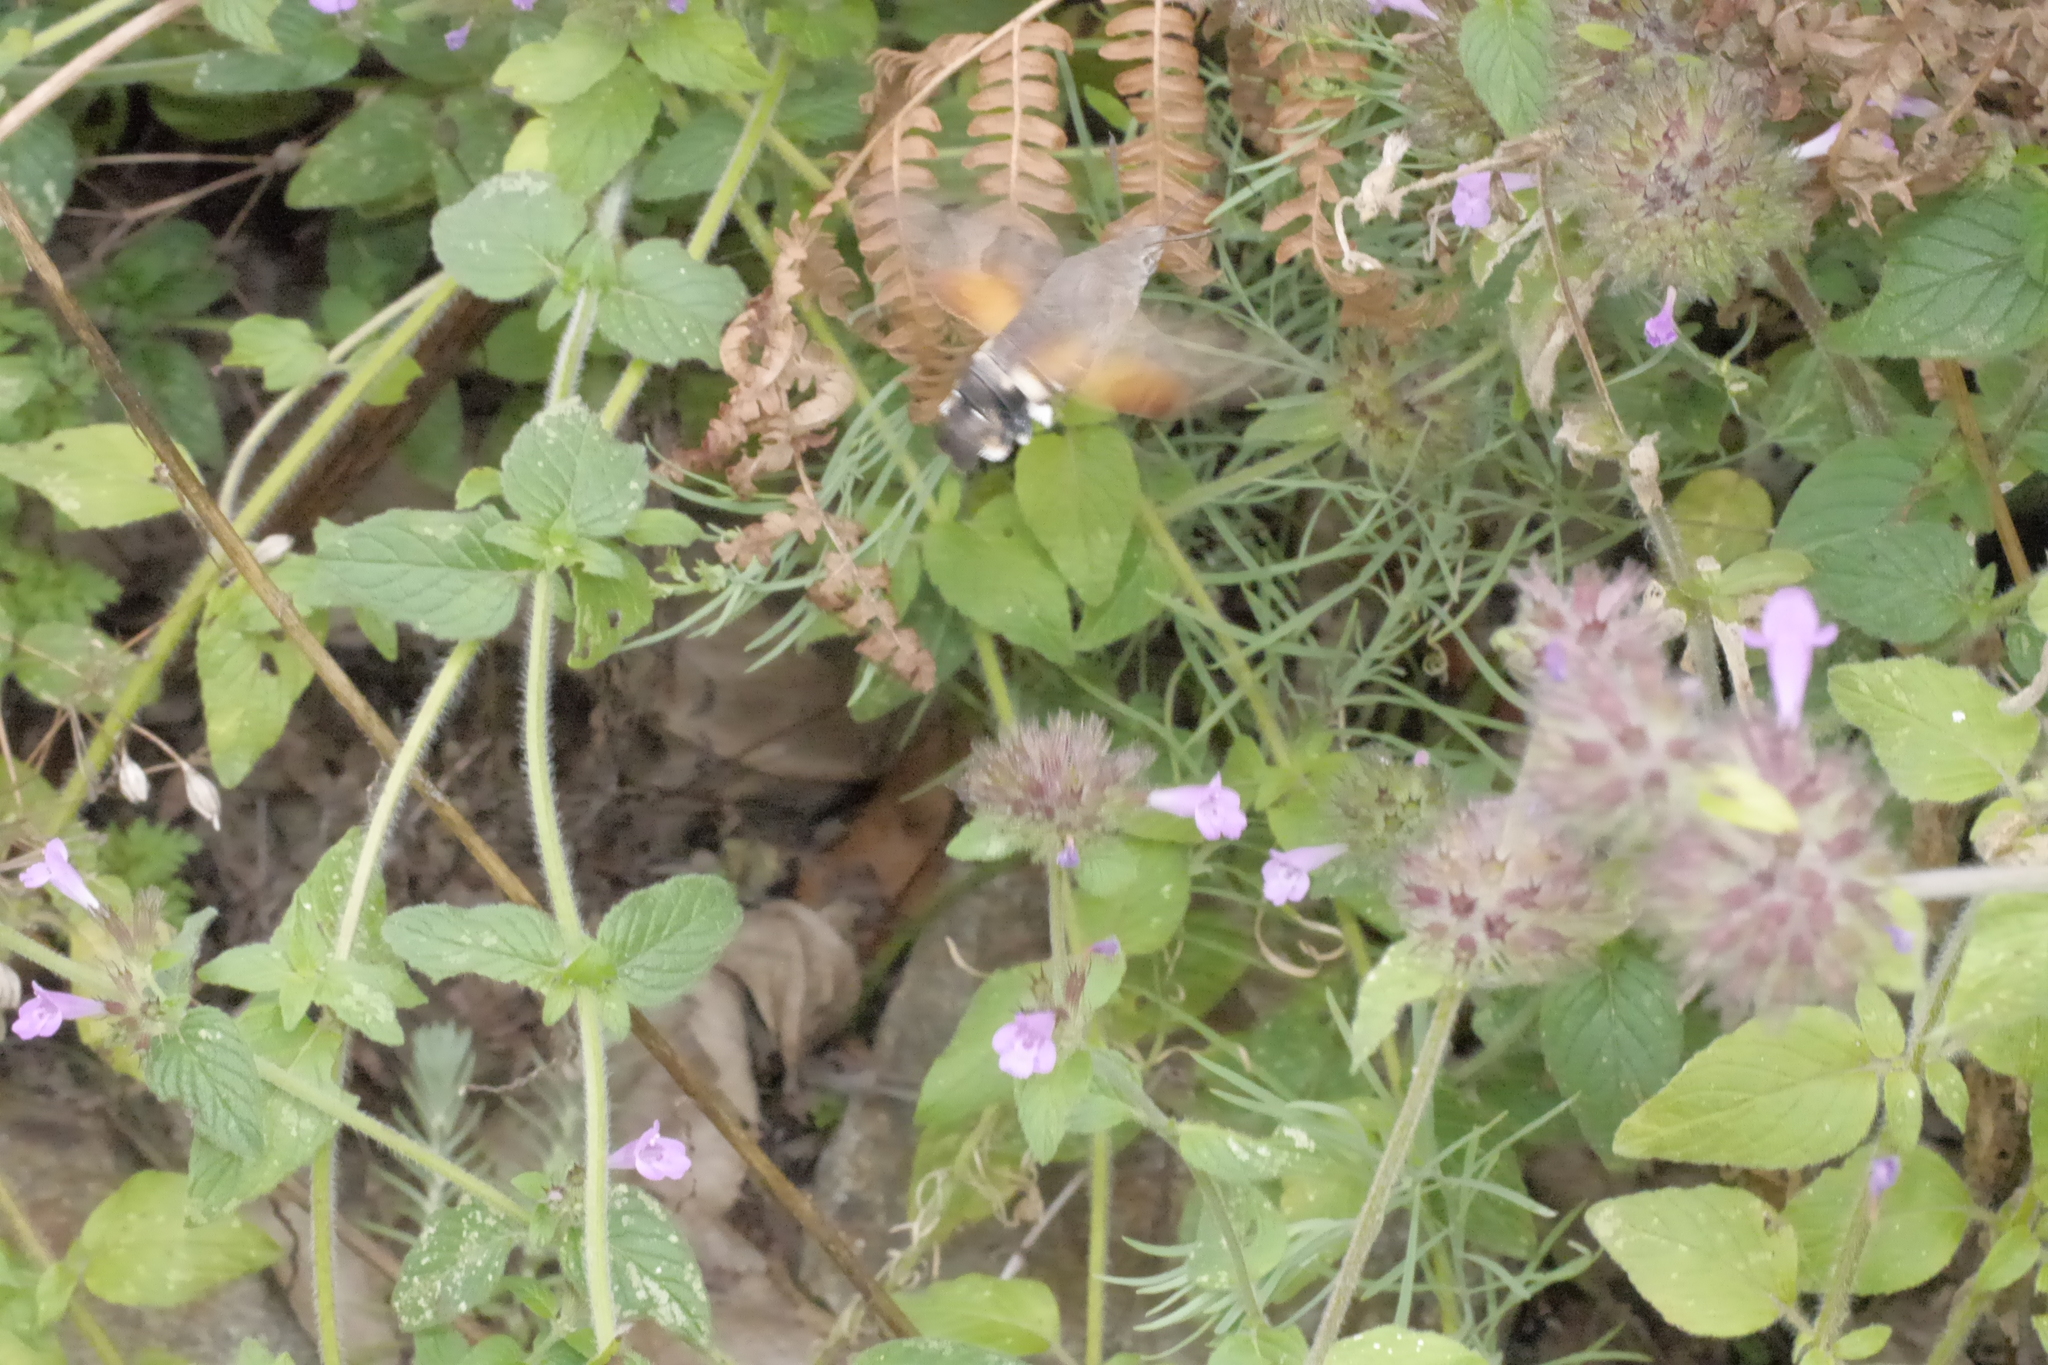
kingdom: Animalia
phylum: Arthropoda
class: Insecta
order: Lepidoptera
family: Sphingidae
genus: Macroglossum
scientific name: Macroglossum stellatarum
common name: Humming-bird hawk-moth
